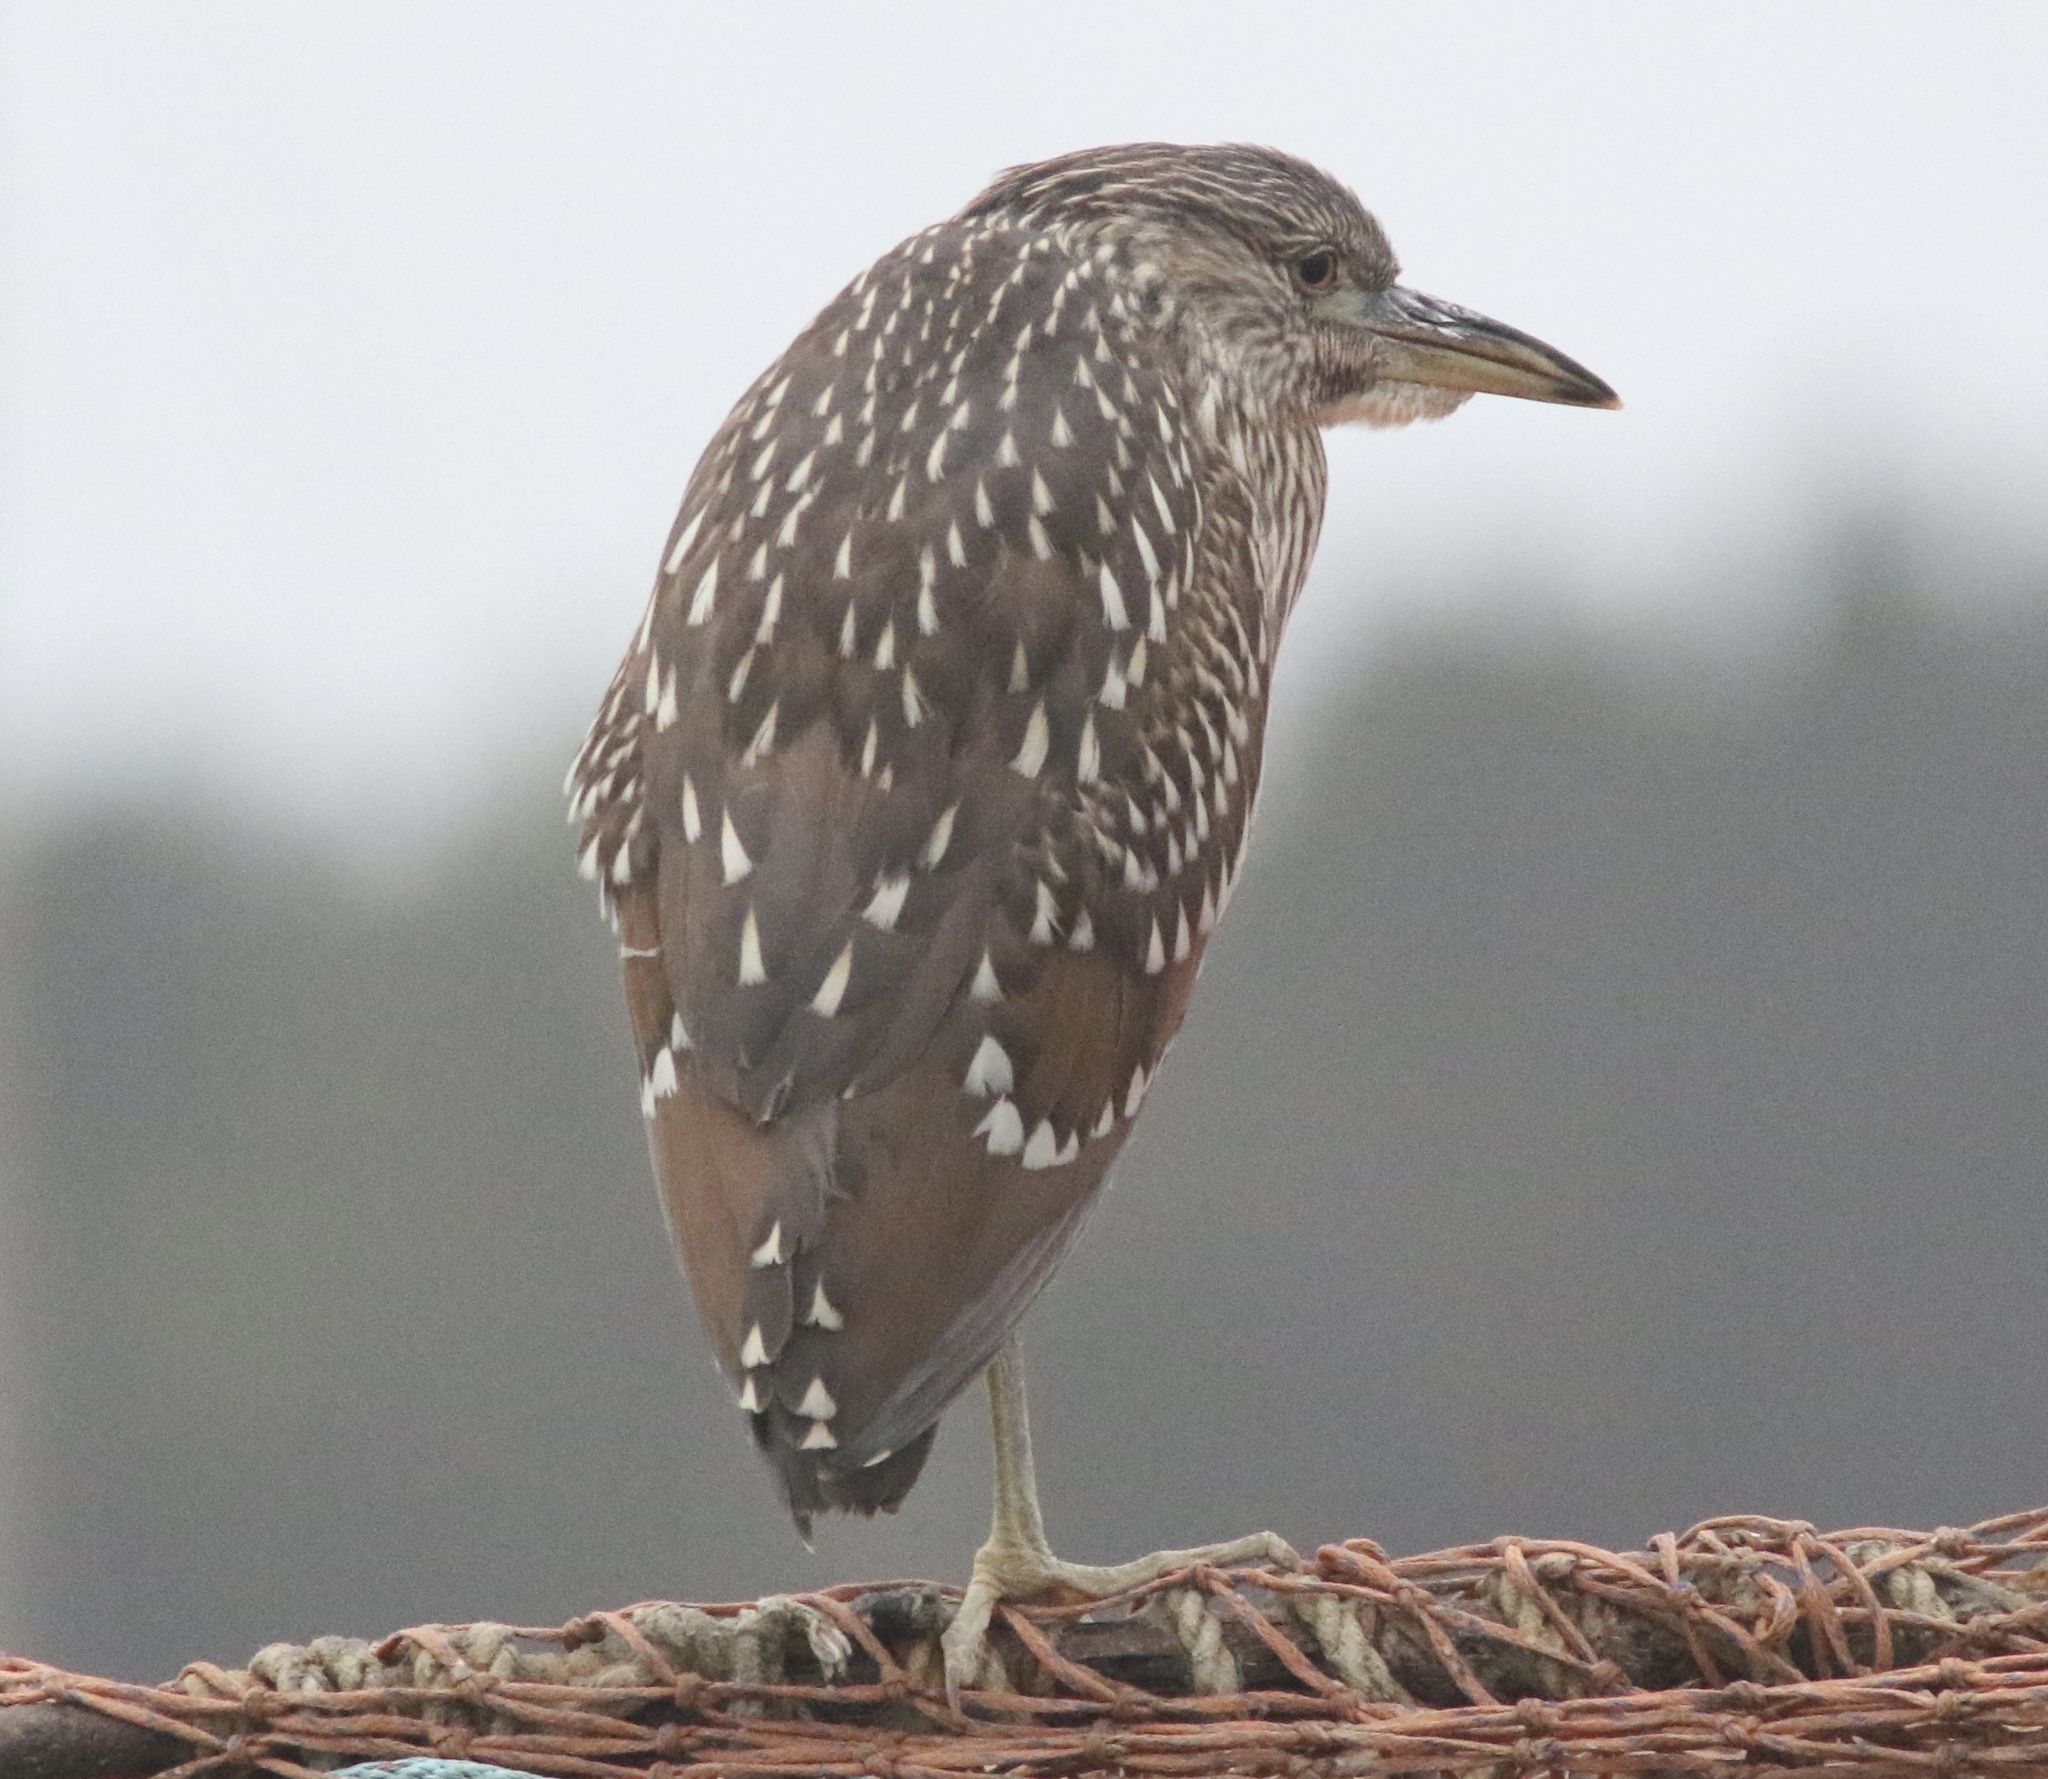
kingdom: Animalia
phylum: Chordata
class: Aves
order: Pelecaniformes
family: Ardeidae
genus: Nycticorax
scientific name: Nycticorax nycticorax
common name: Black-crowned night heron
